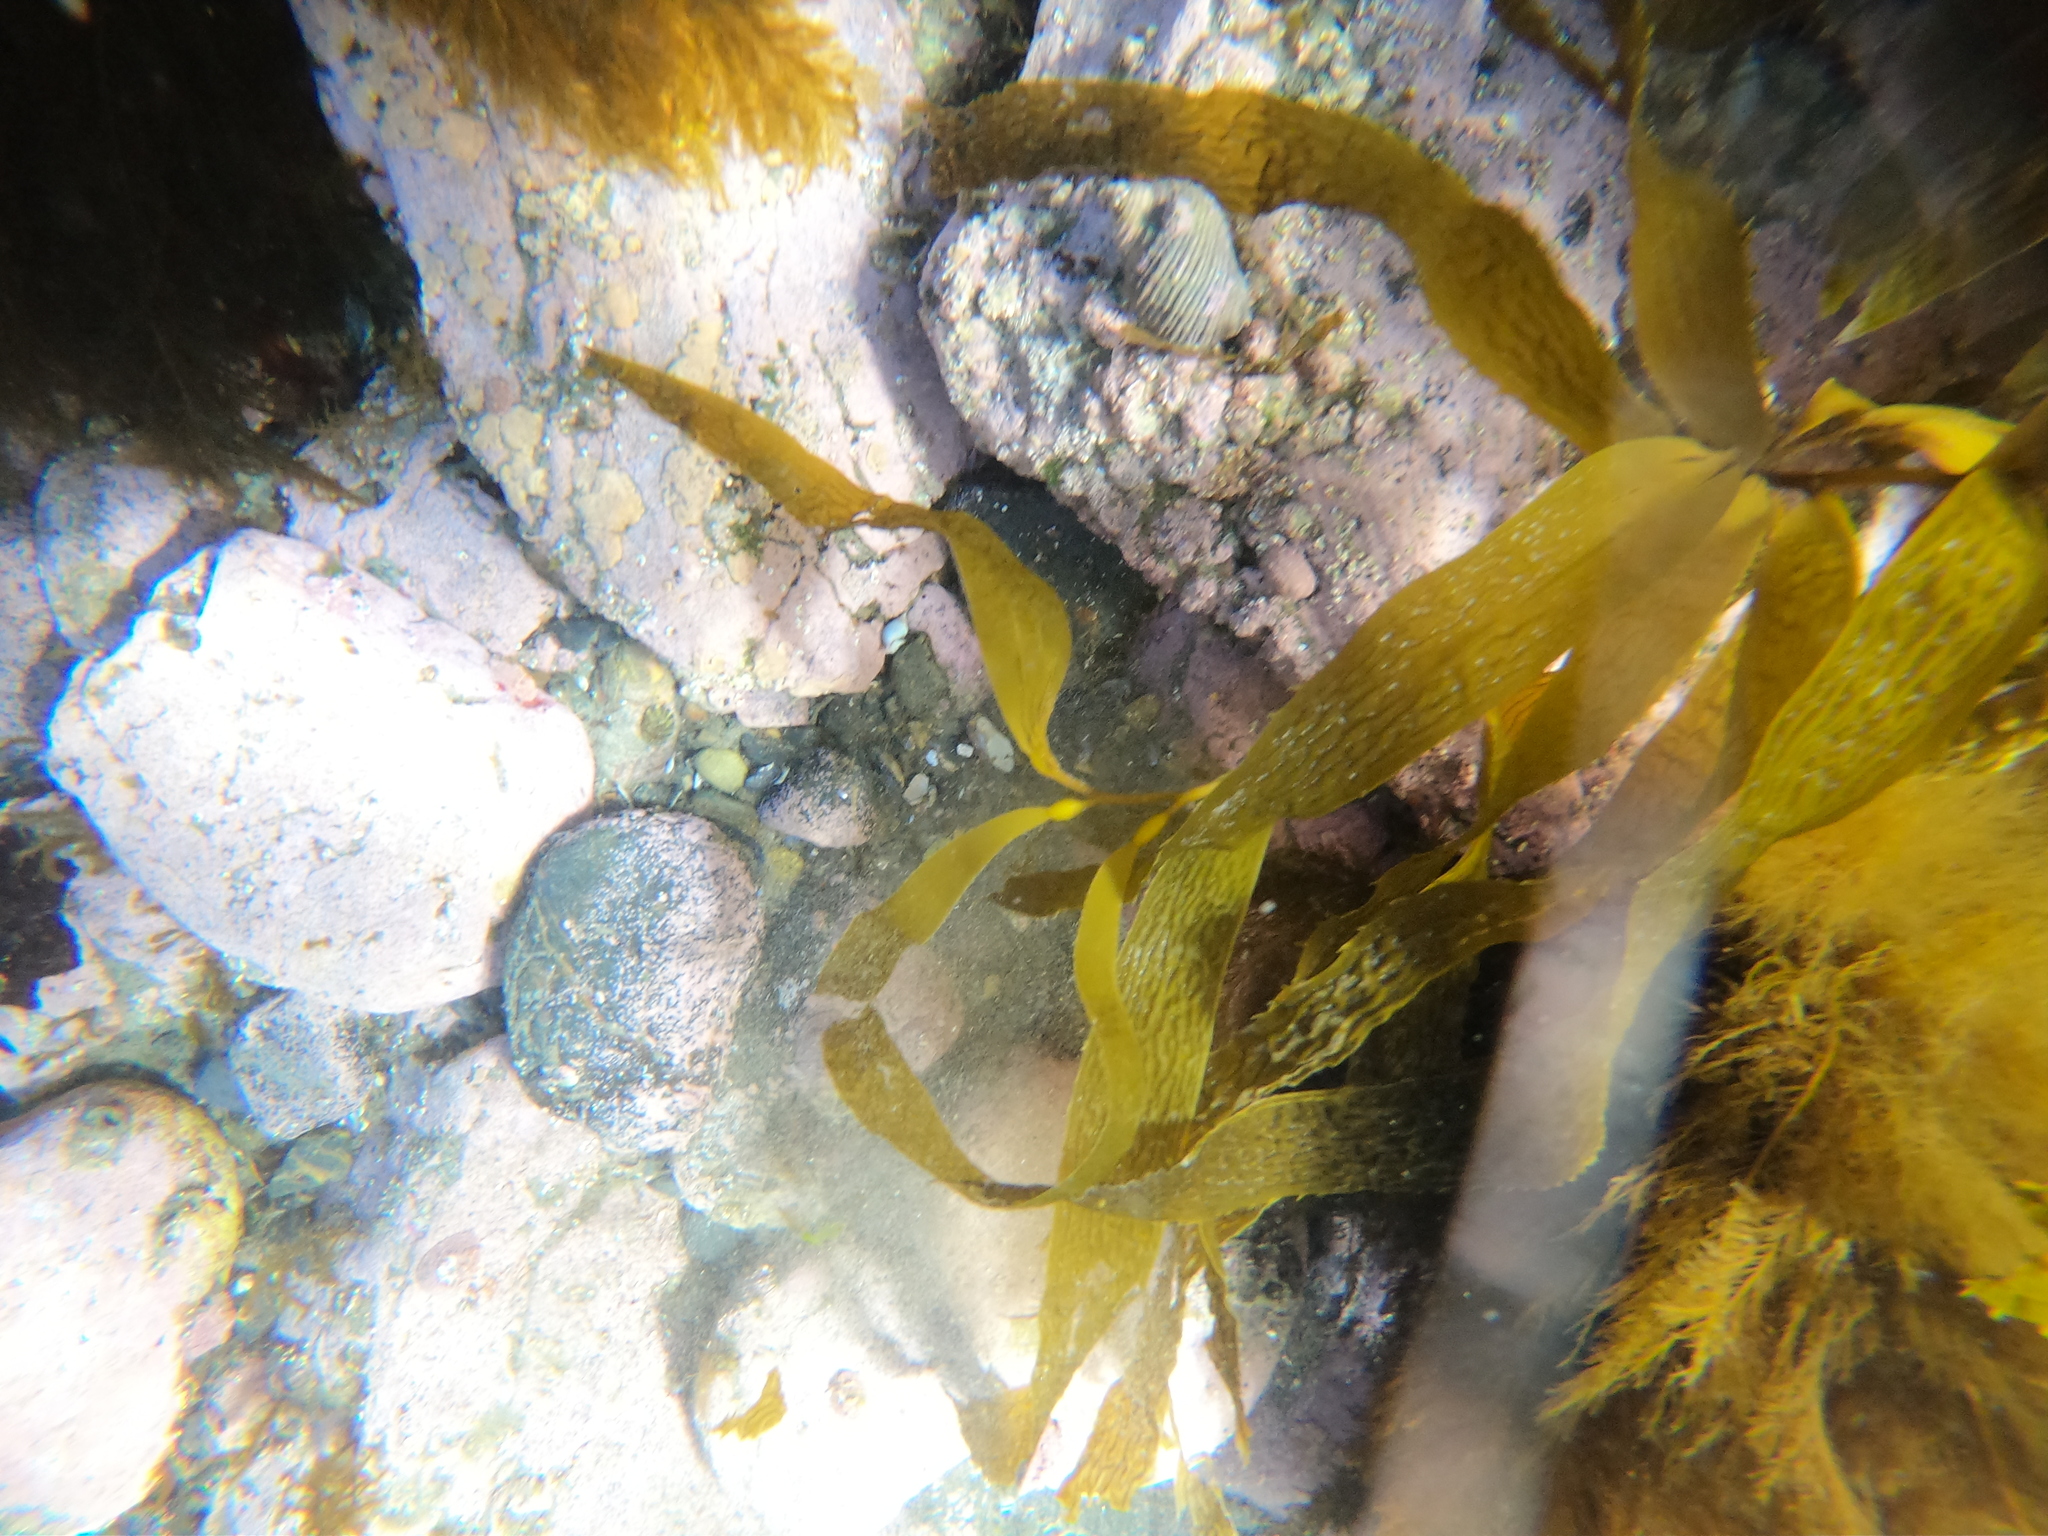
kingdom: Animalia
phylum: Mollusca
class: Gastropoda
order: Neogastropoda
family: Muricidae
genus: Acanthina
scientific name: Acanthina monodon
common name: One-toothed thais
